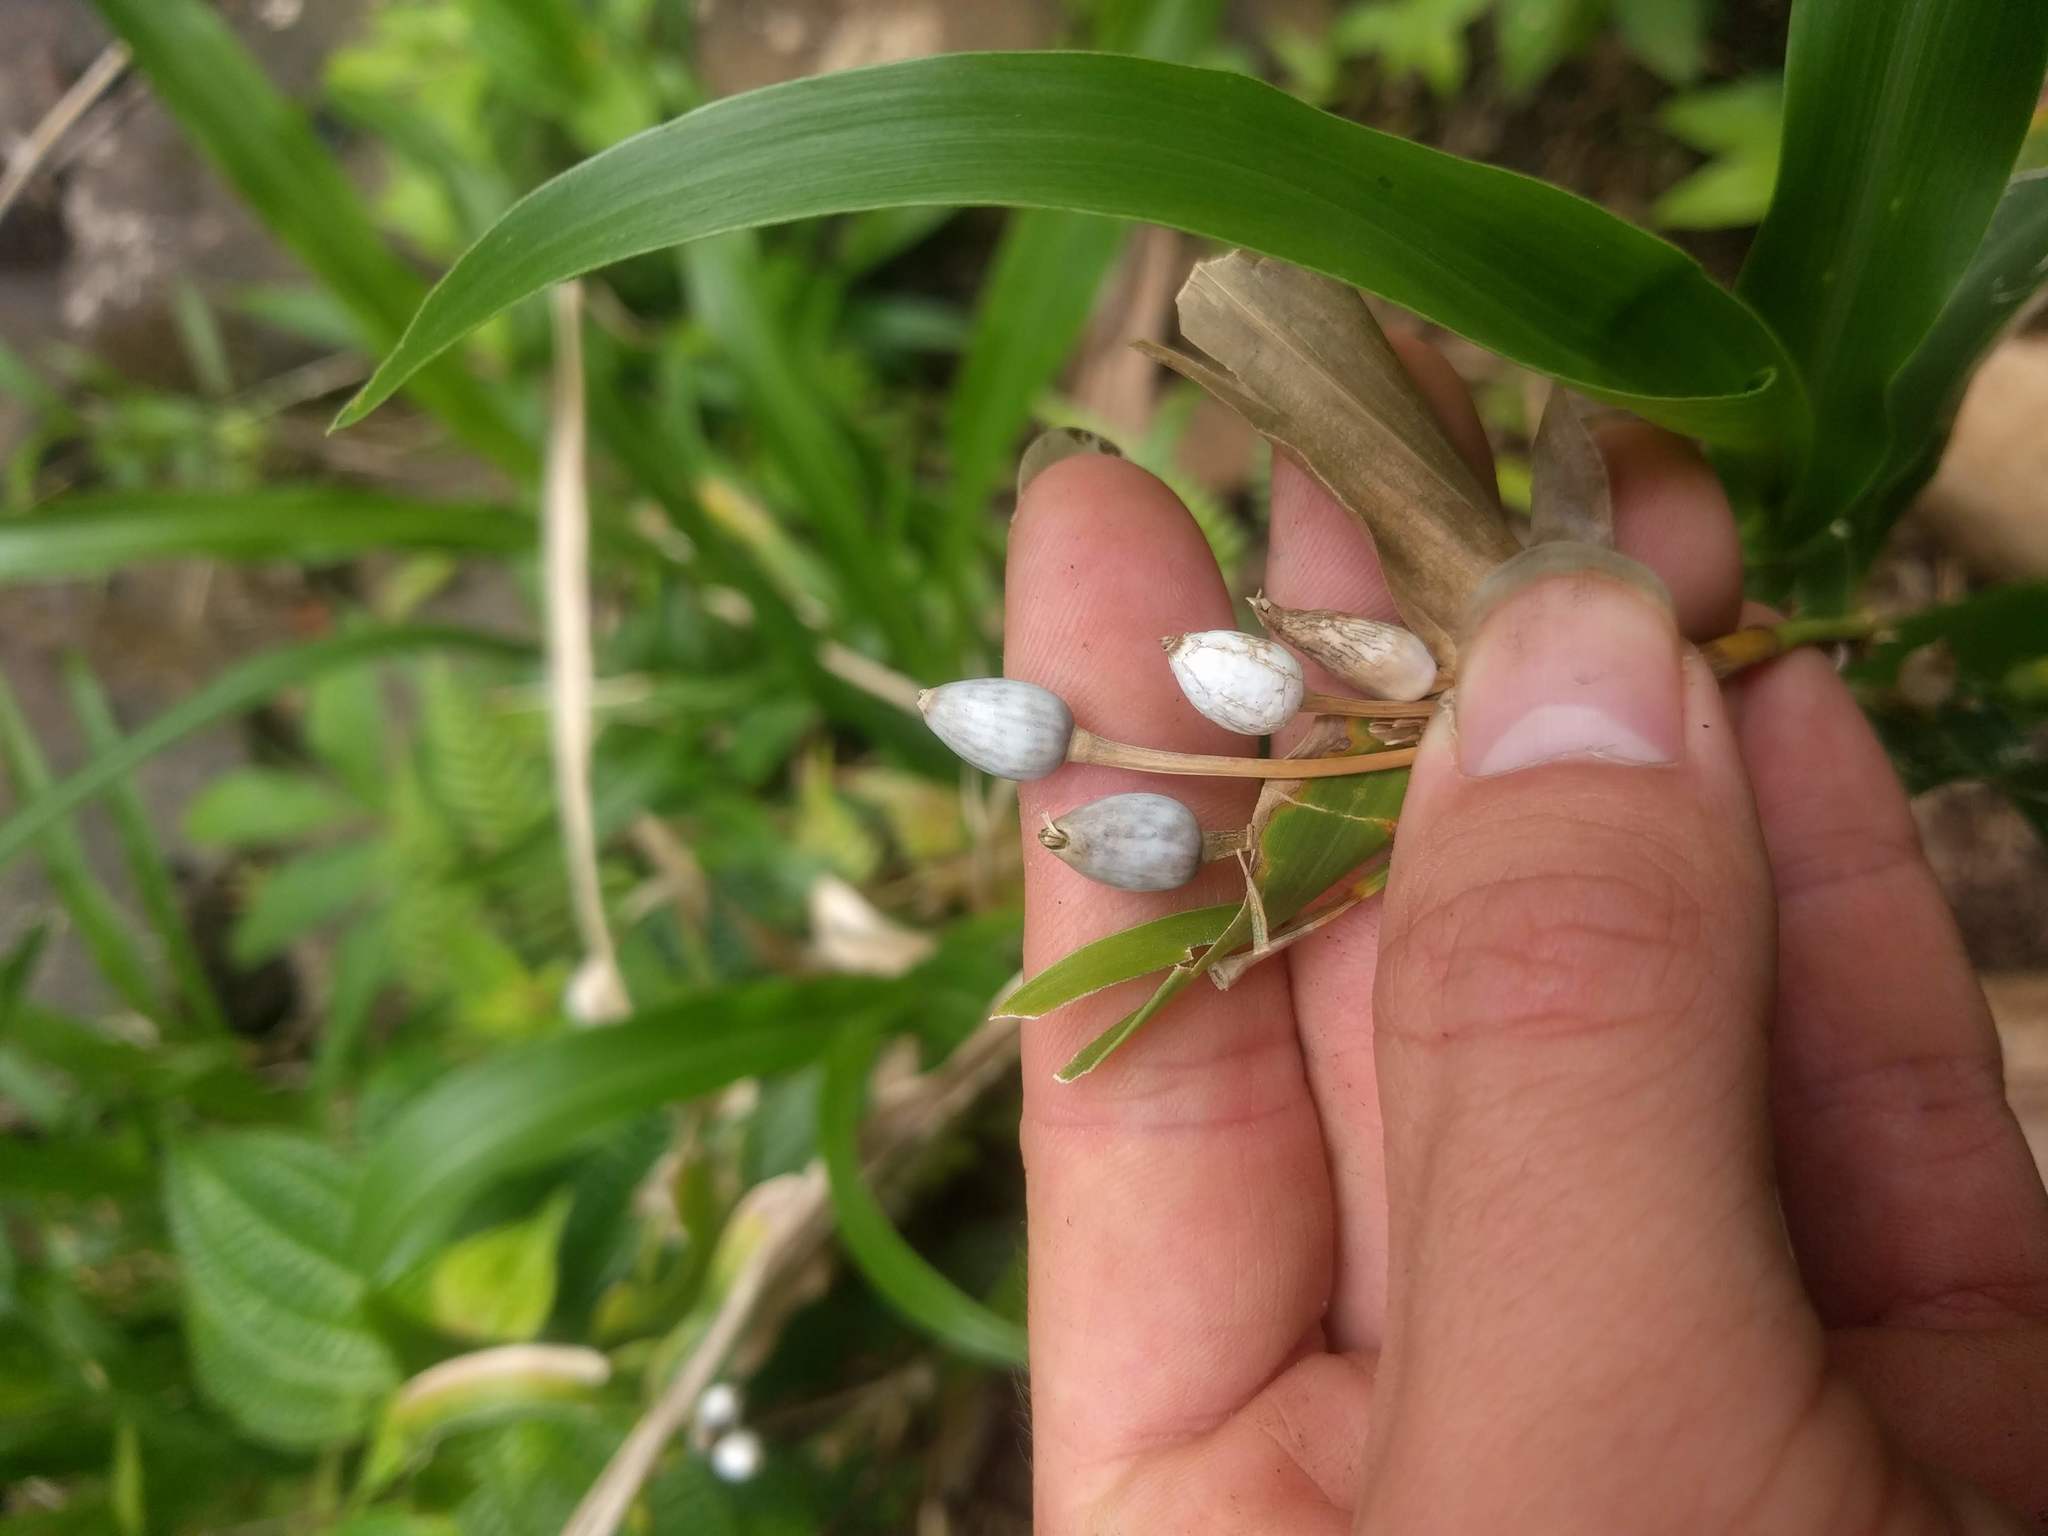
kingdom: Plantae
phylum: Tracheophyta
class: Liliopsida
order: Poales
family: Poaceae
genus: Coix
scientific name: Coix lacryma-jobi
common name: Job's tears
